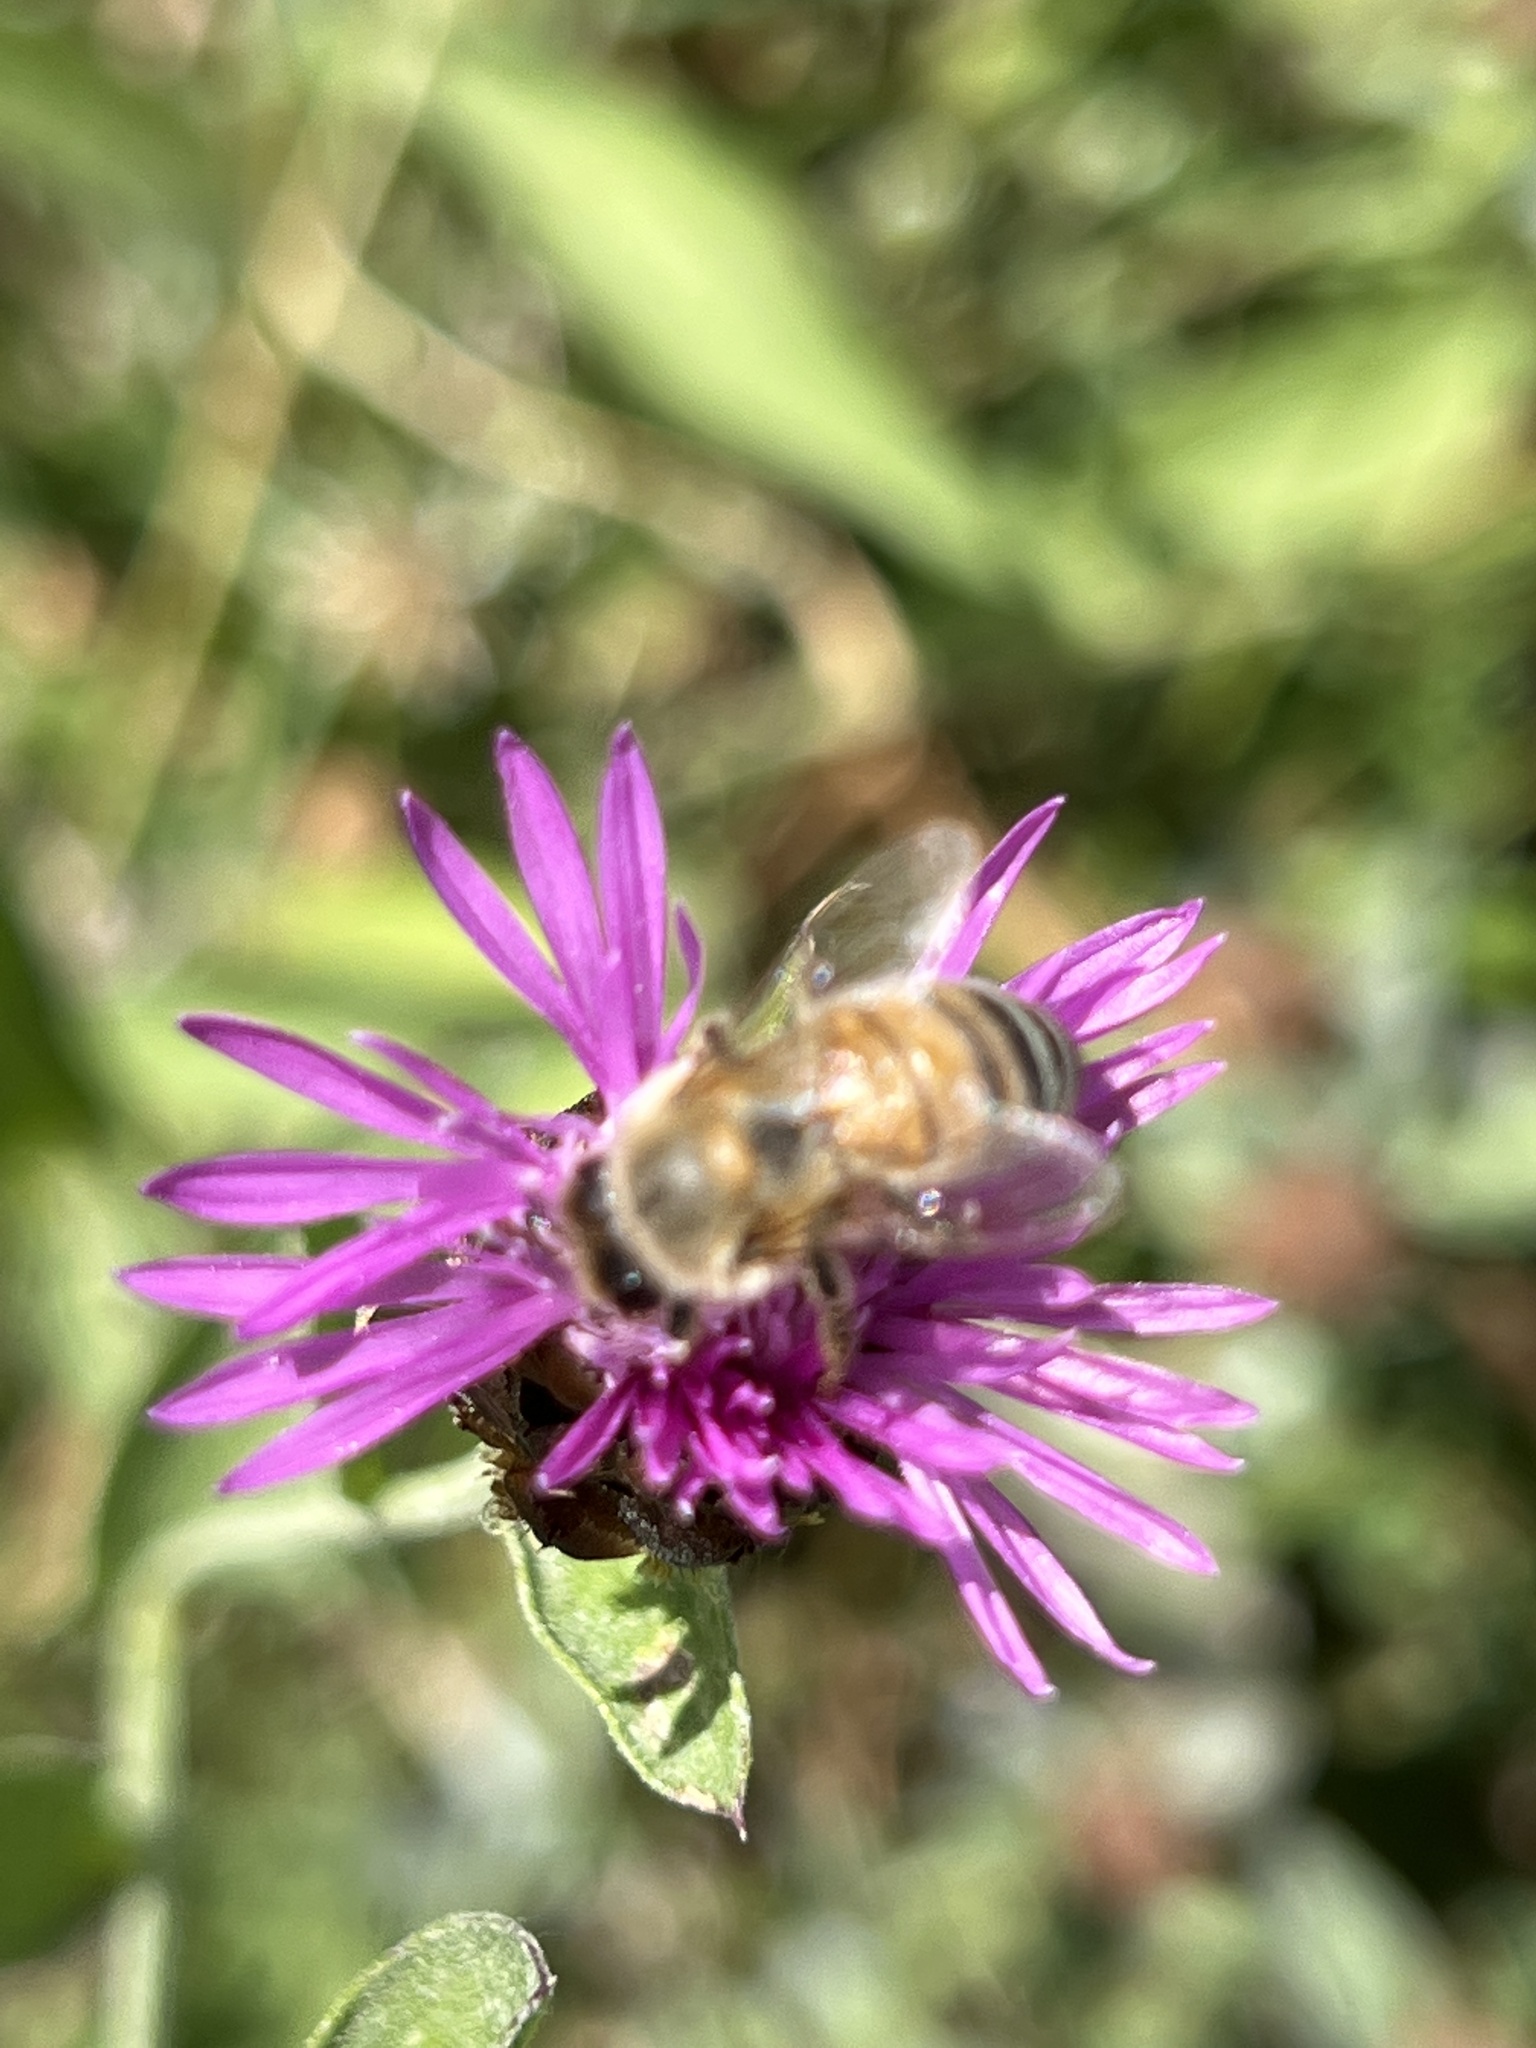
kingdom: Animalia
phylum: Arthropoda
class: Insecta
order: Hymenoptera
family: Apidae
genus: Apis
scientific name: Apis mellifera
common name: Honey bee
